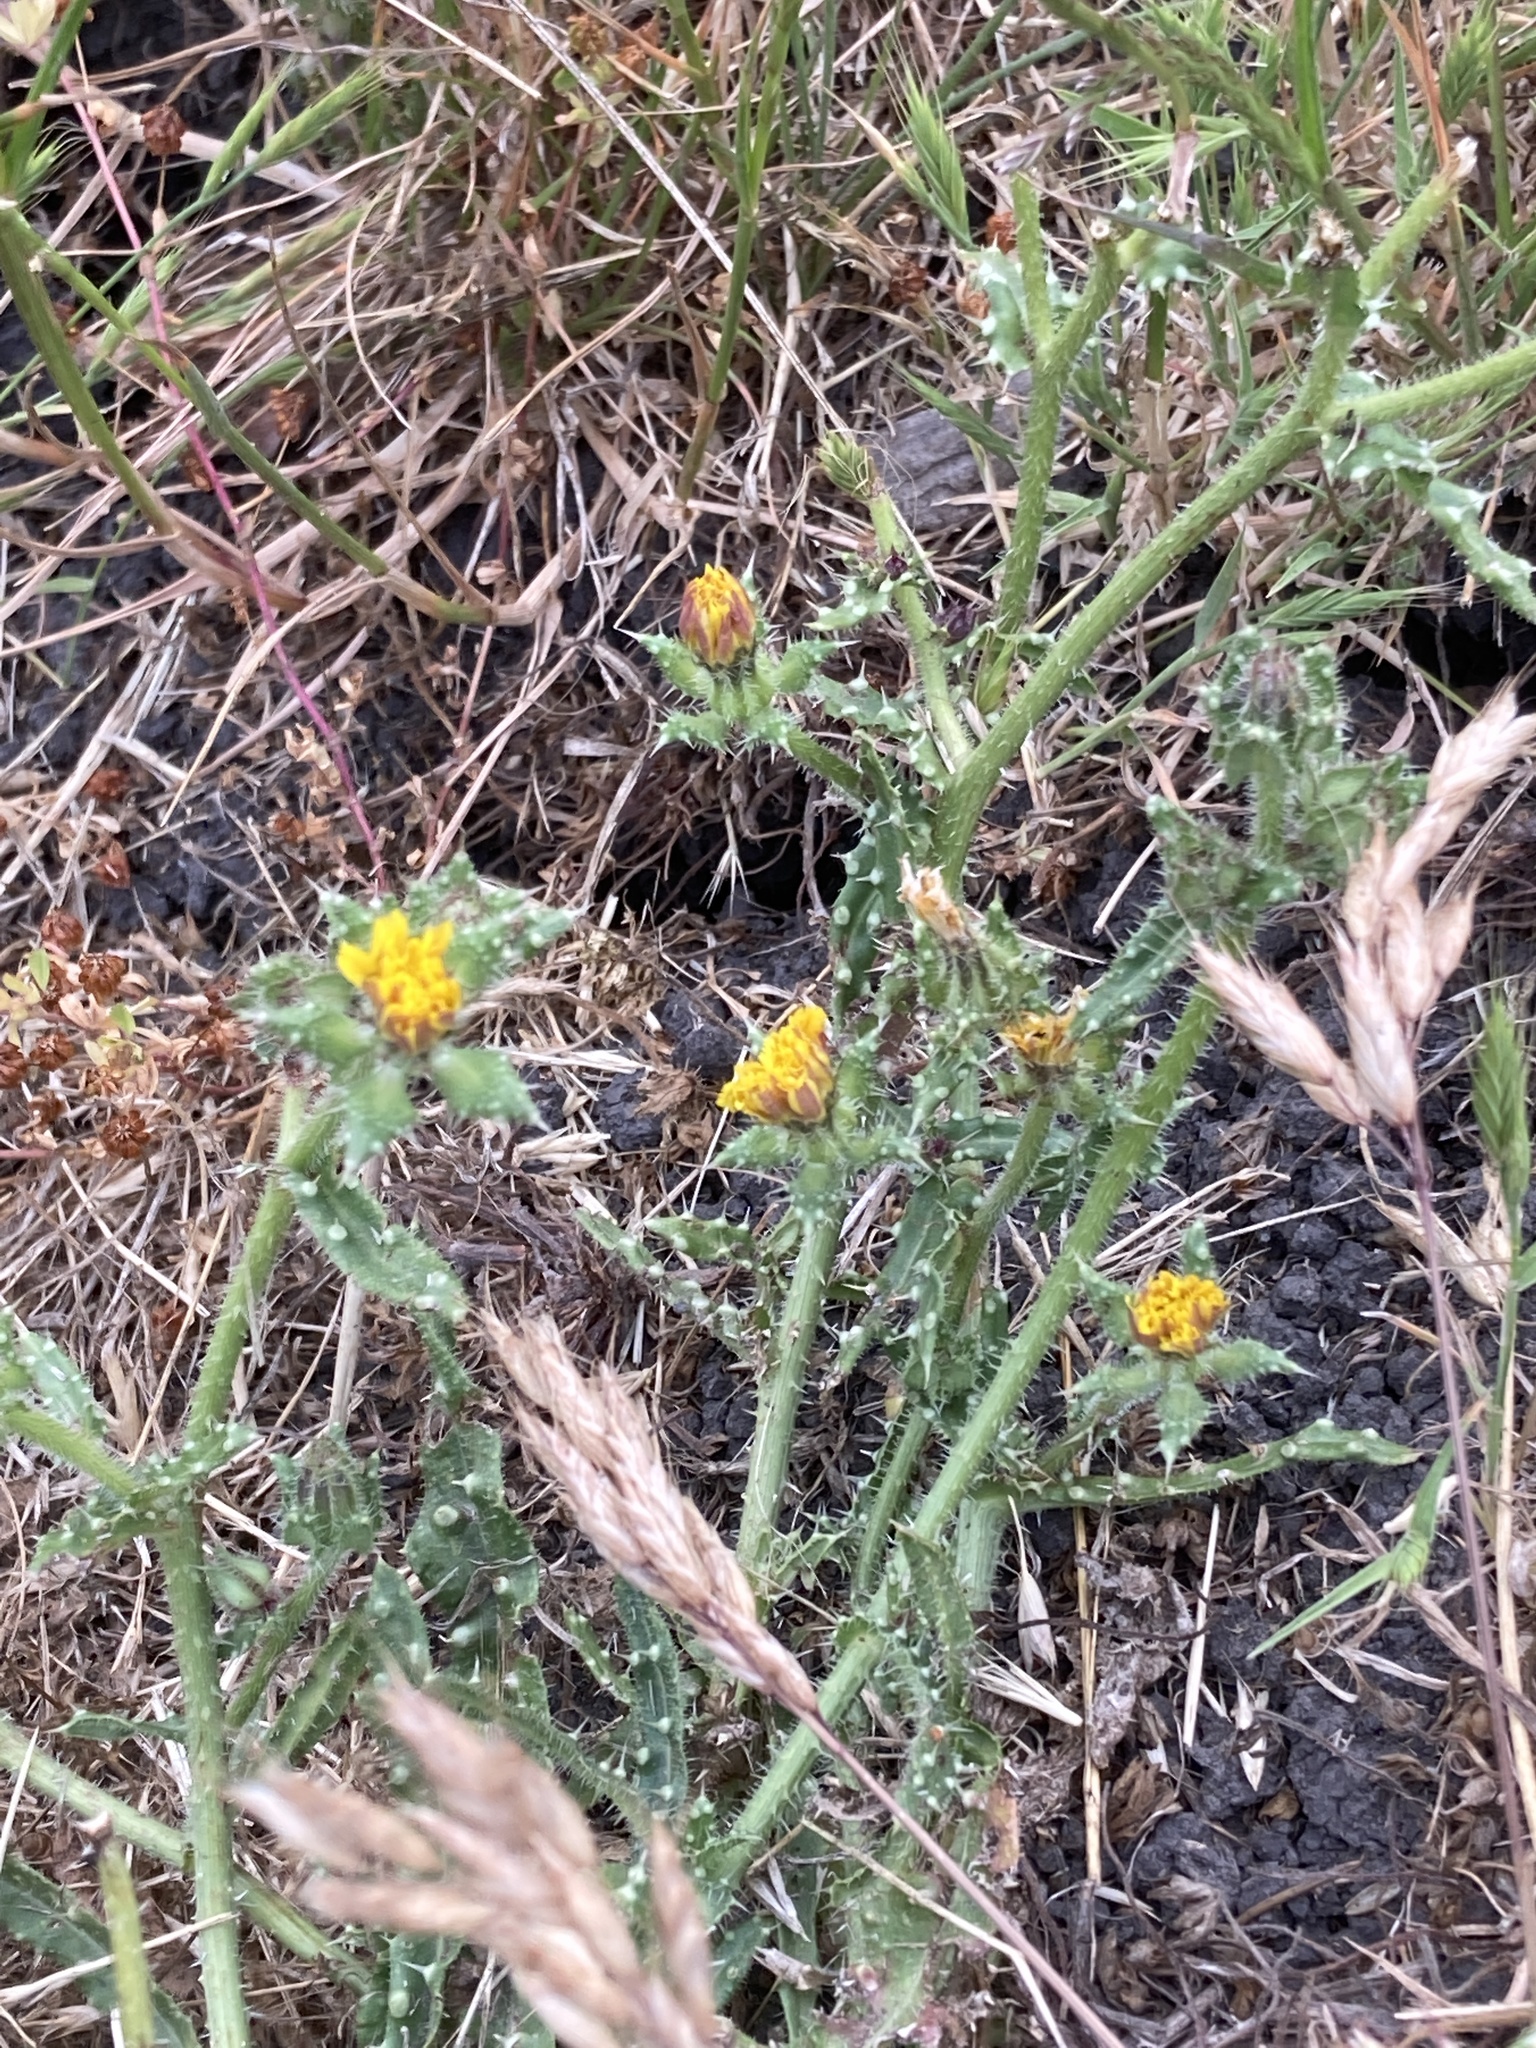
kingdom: Plantae
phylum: Tracheophyta
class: Magnoliopsida
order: Asterales
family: Asteraceae
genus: Helminthotheca
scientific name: Helminthotheca echioides
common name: Ox-tongue
